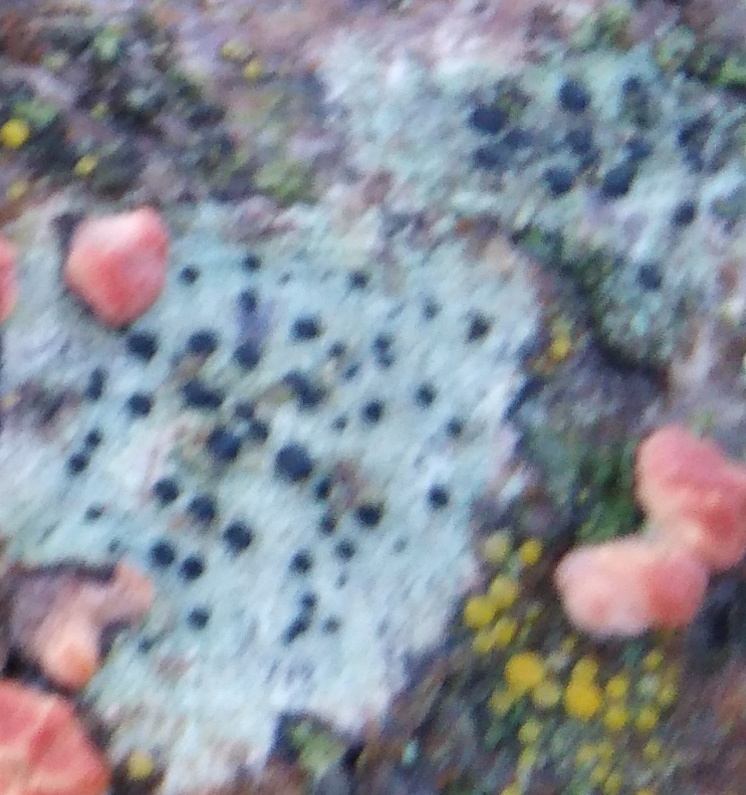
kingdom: Fungi
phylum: Basidiomycota
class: Agaricomycetes
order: Russulales
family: Peniophoraceae
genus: Peniophora
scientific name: Peniophora rufa
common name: Red tree brain fungus
